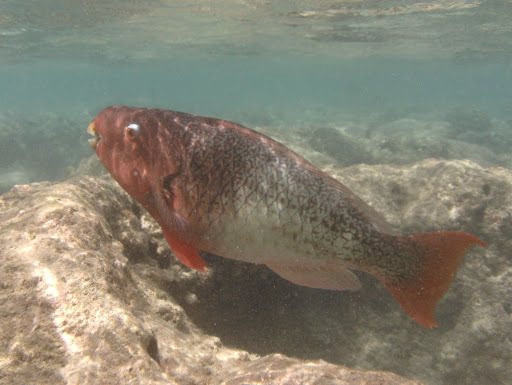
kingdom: Animalia
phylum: Chordata
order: Perciformes
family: Scaridae
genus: Scarus
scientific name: Scarus rubroviolaceus
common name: Ember parrotfish
